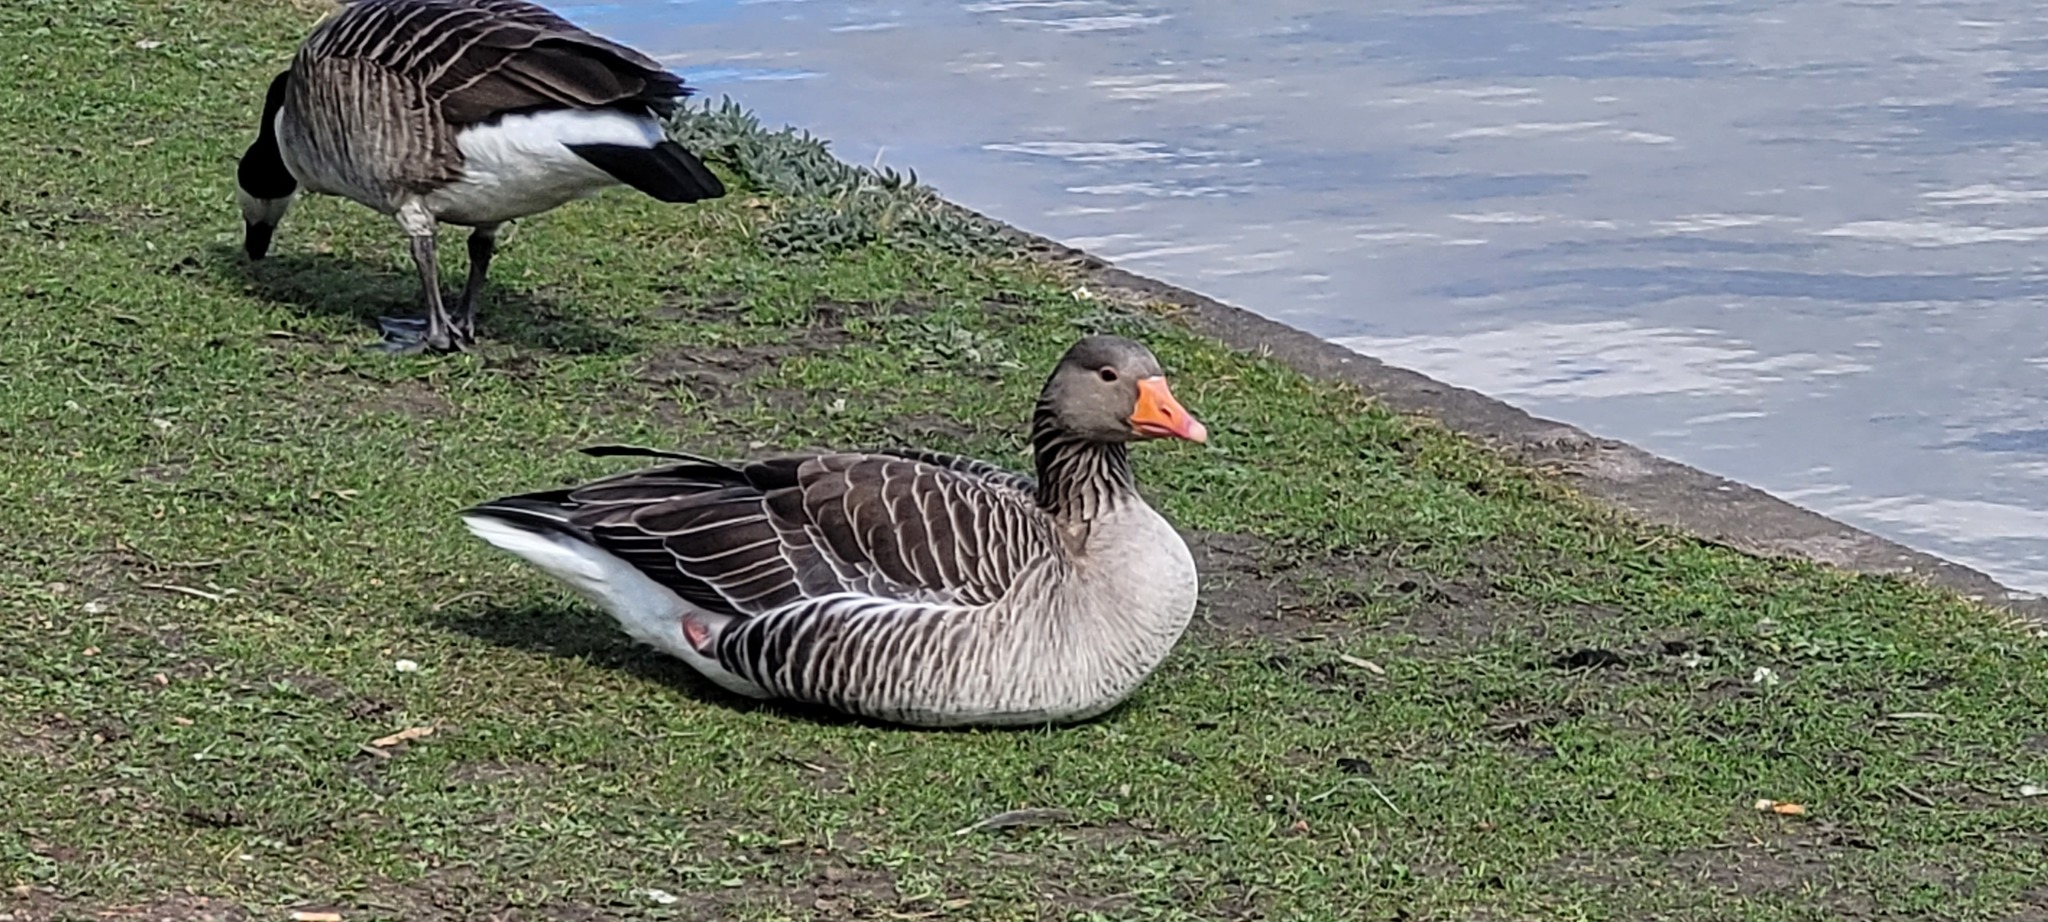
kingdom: Animalia
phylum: Chordata
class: Aves
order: Anseriformes
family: Anatidae
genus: Anser
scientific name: Anser anser
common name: Greylag goose
